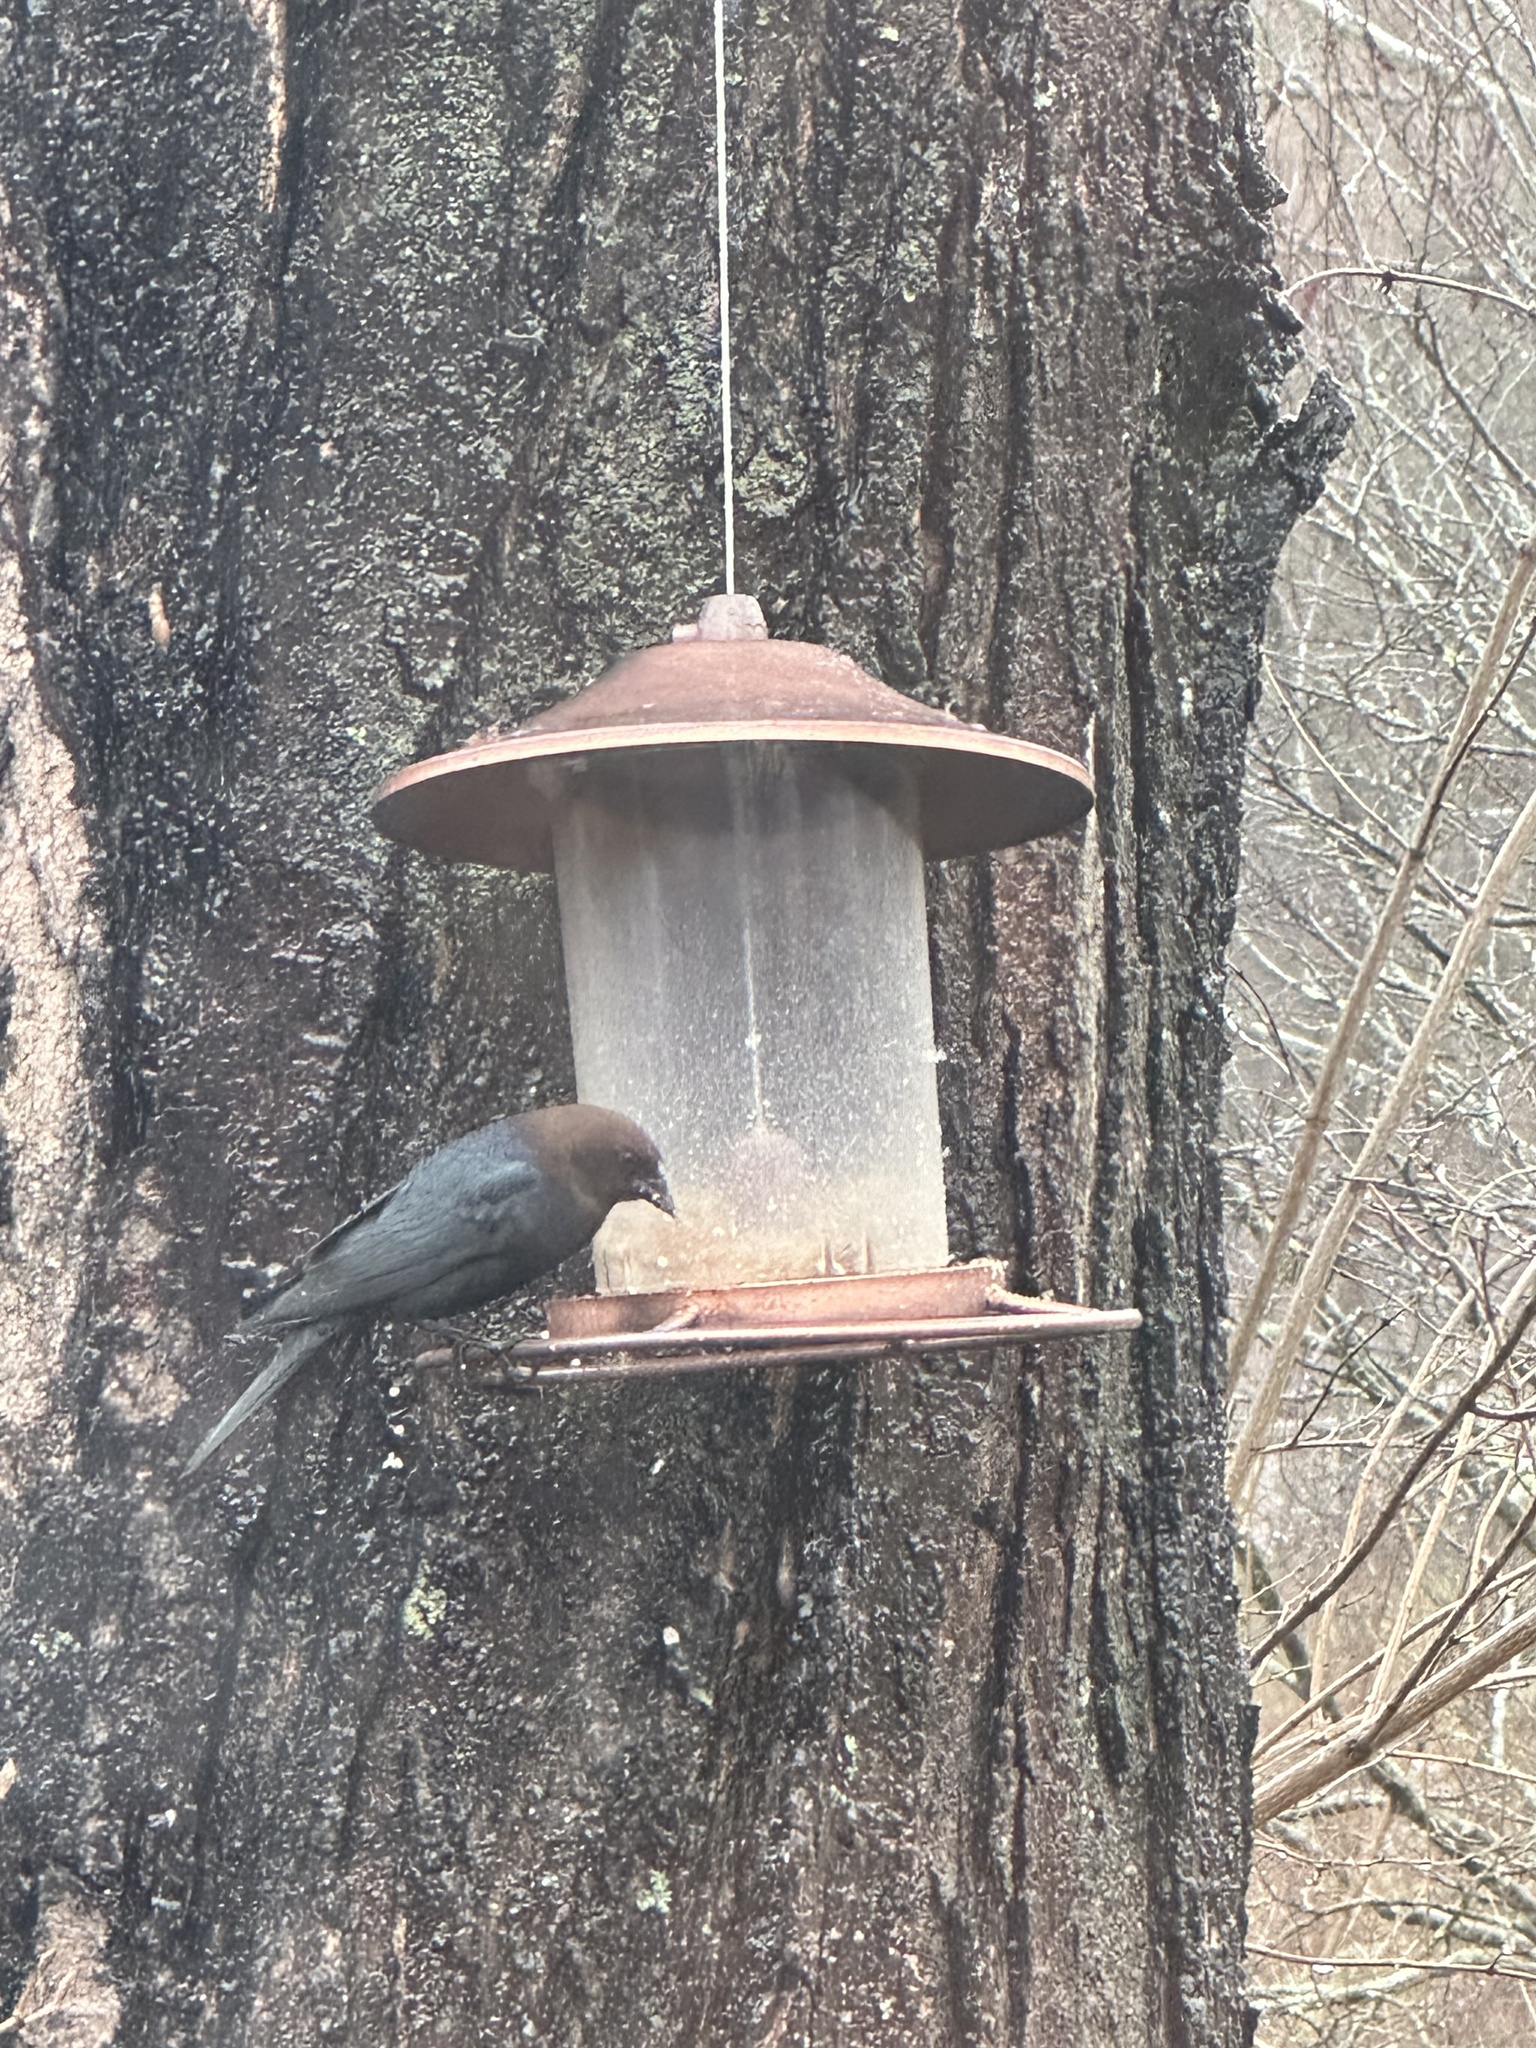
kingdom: Animalia
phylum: Chordata
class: Aves
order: Passeriformes
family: Icteridae
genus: Molothrus
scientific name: Molothrus ater
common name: Brown-headed cowbird
